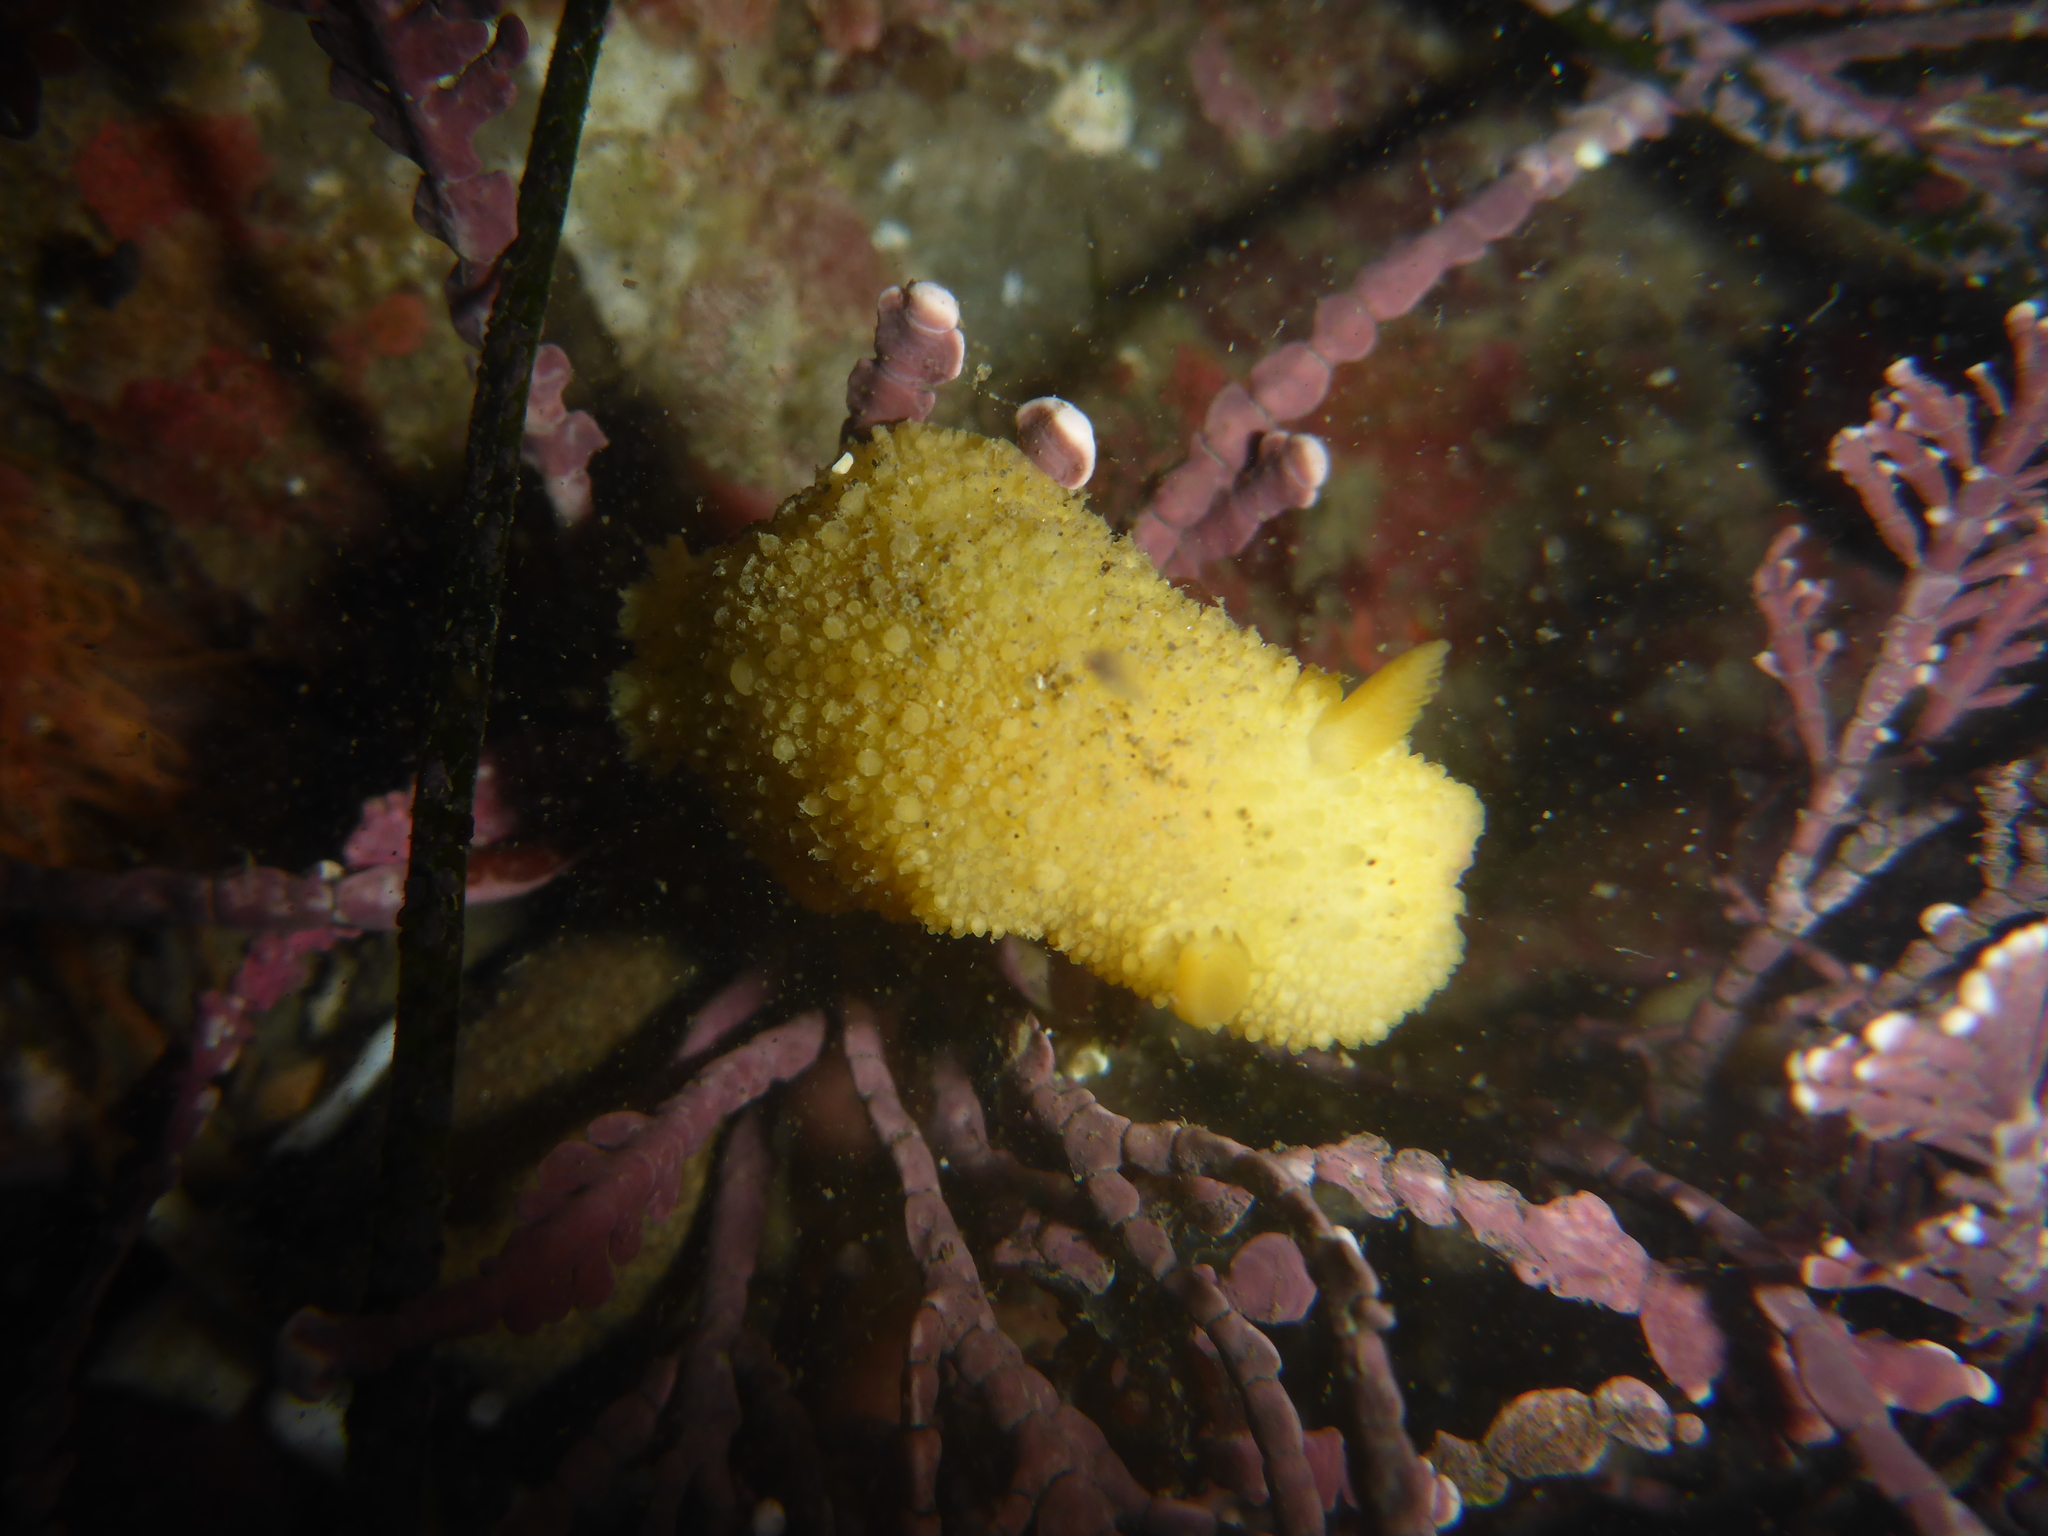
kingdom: Animalia
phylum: Mollusca
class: Gastropoda
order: Nudibranchia
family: Dorididae
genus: Doris
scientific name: Doris montereyensis
